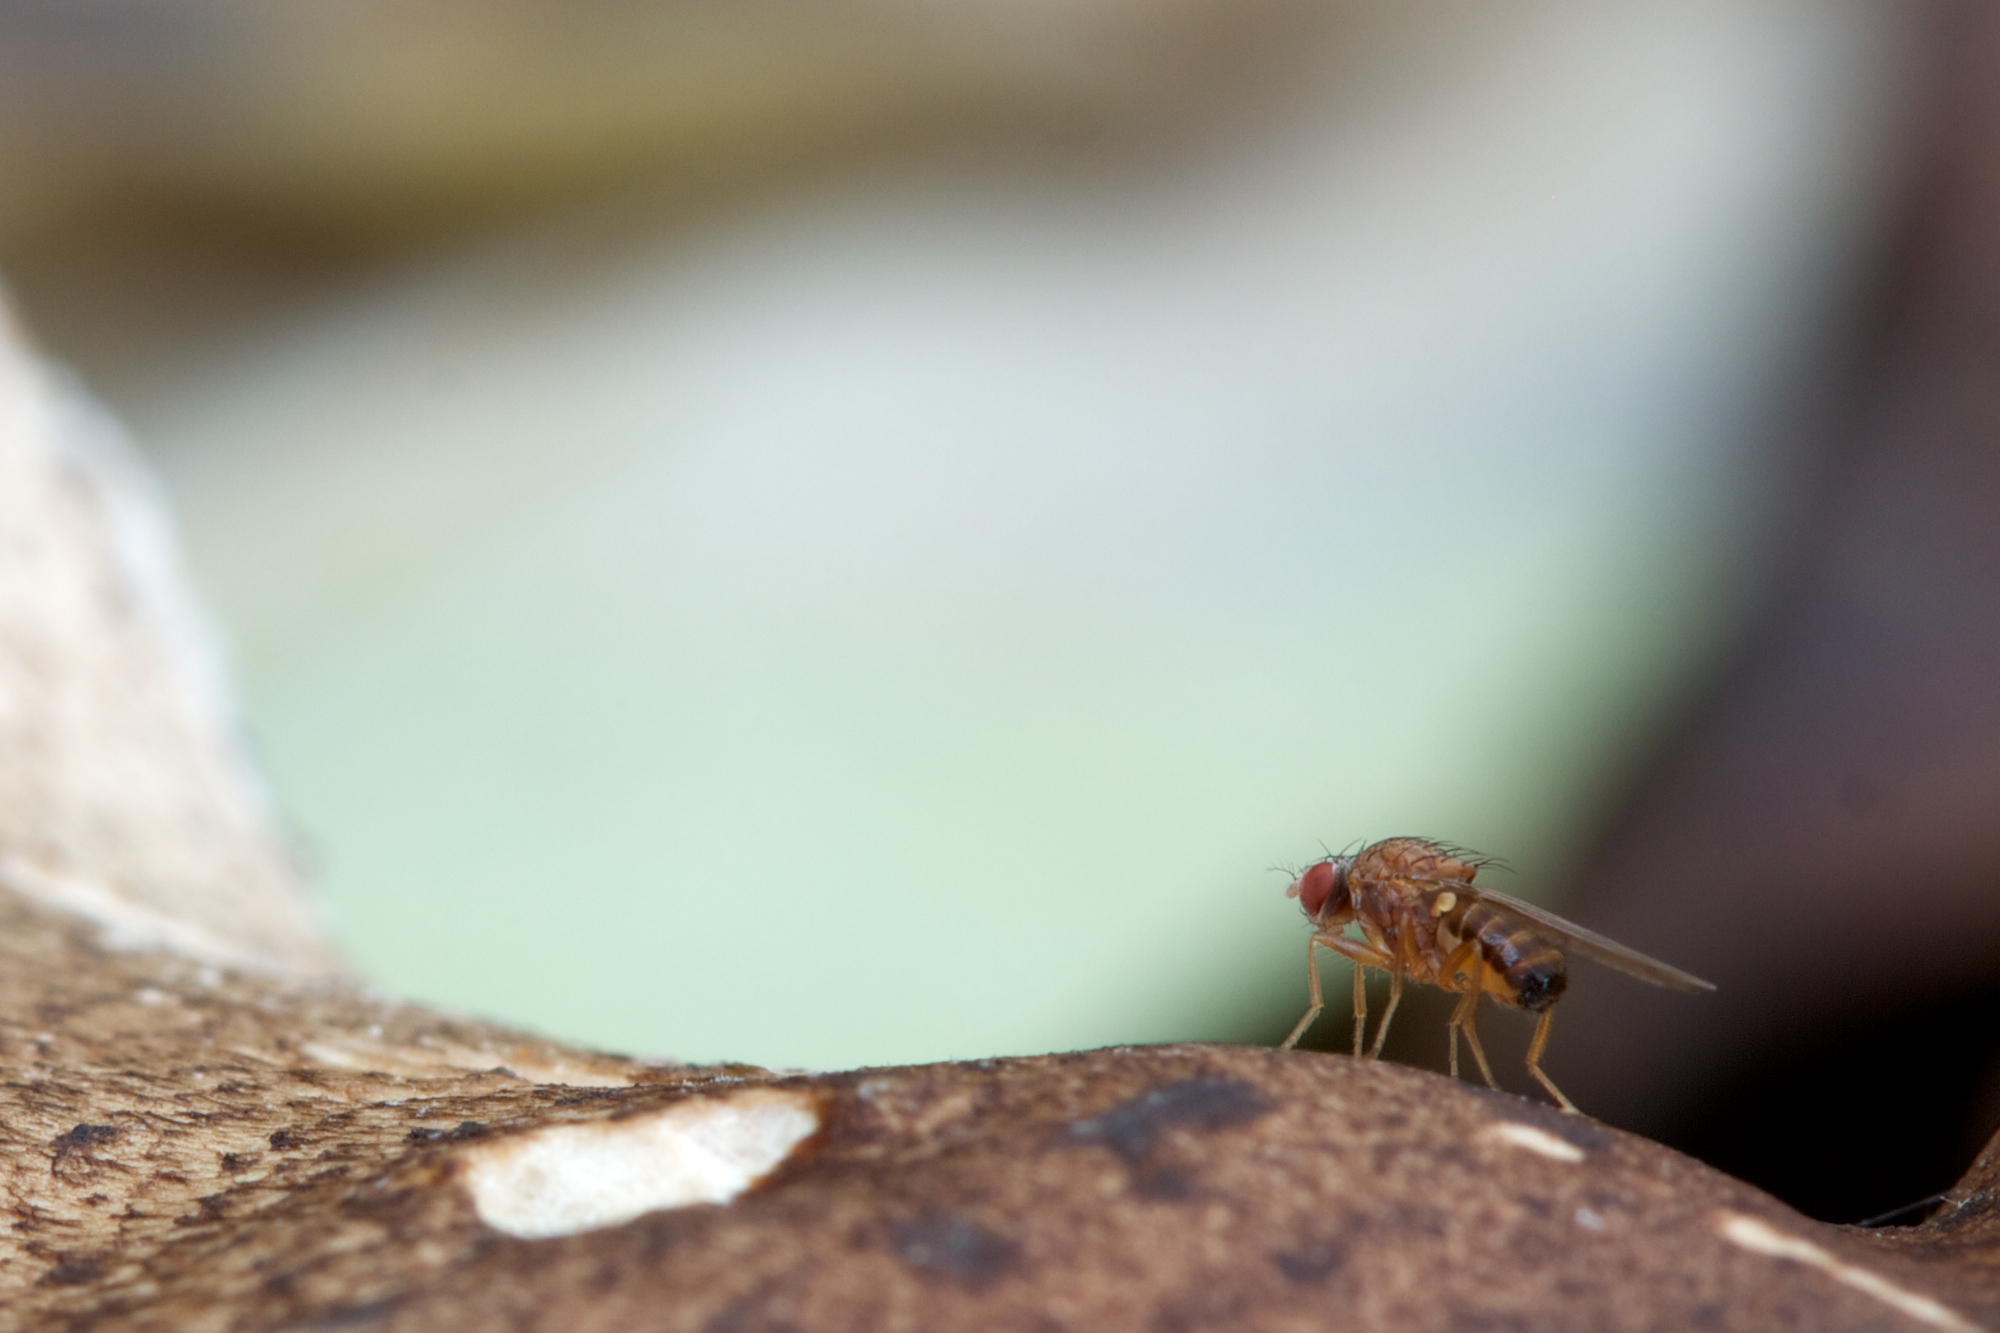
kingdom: Animalia
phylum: Arthropoda
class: Insecta
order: Diptera
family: Heleomyzidae
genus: Suillia
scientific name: Suillia variegata
